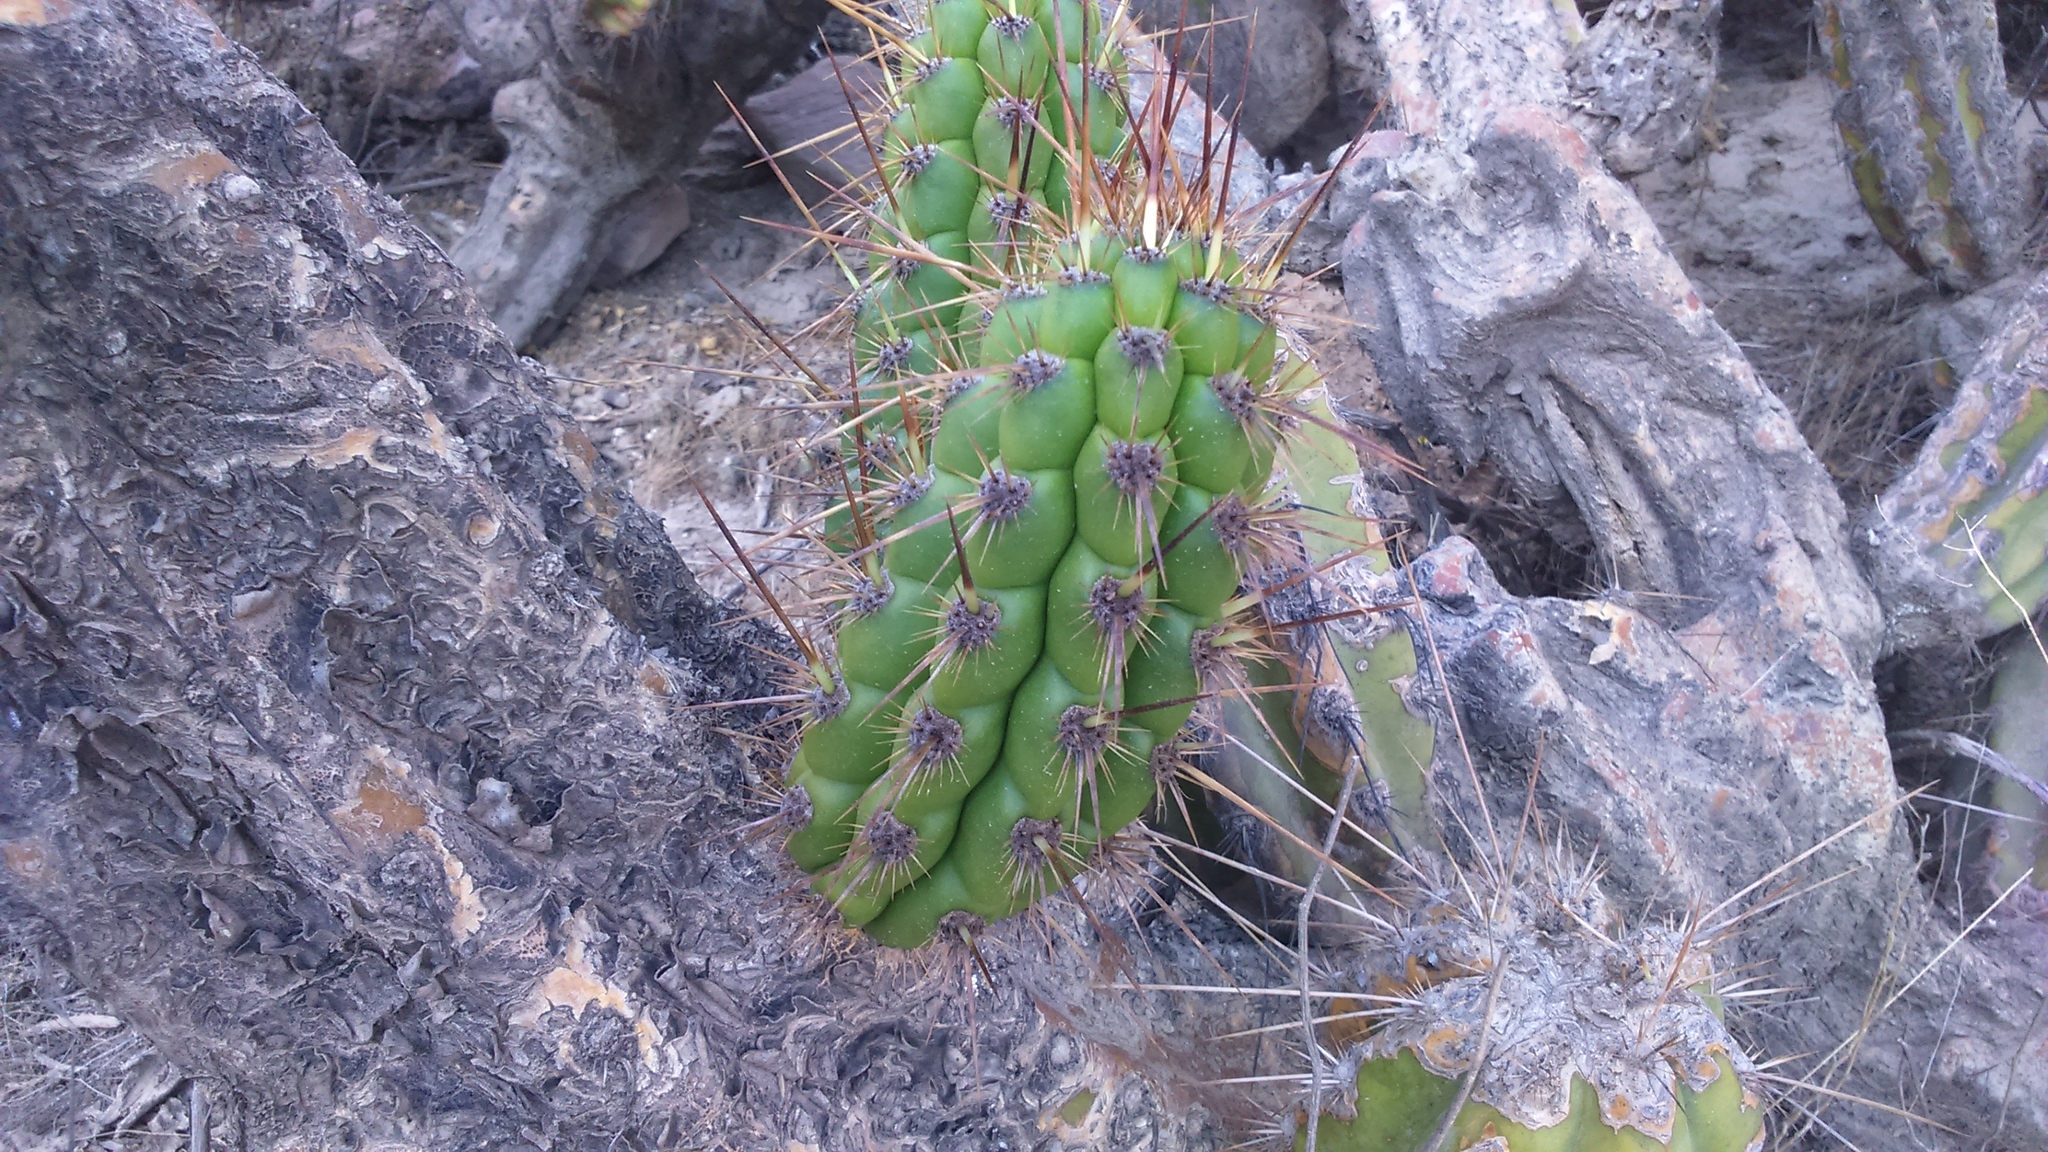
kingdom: Plantae
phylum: Tracheophyta
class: Magnoliopsida
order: Caryophyllales
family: Cactaceae
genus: Corryocactus
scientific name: Corryocactus brevistylus
